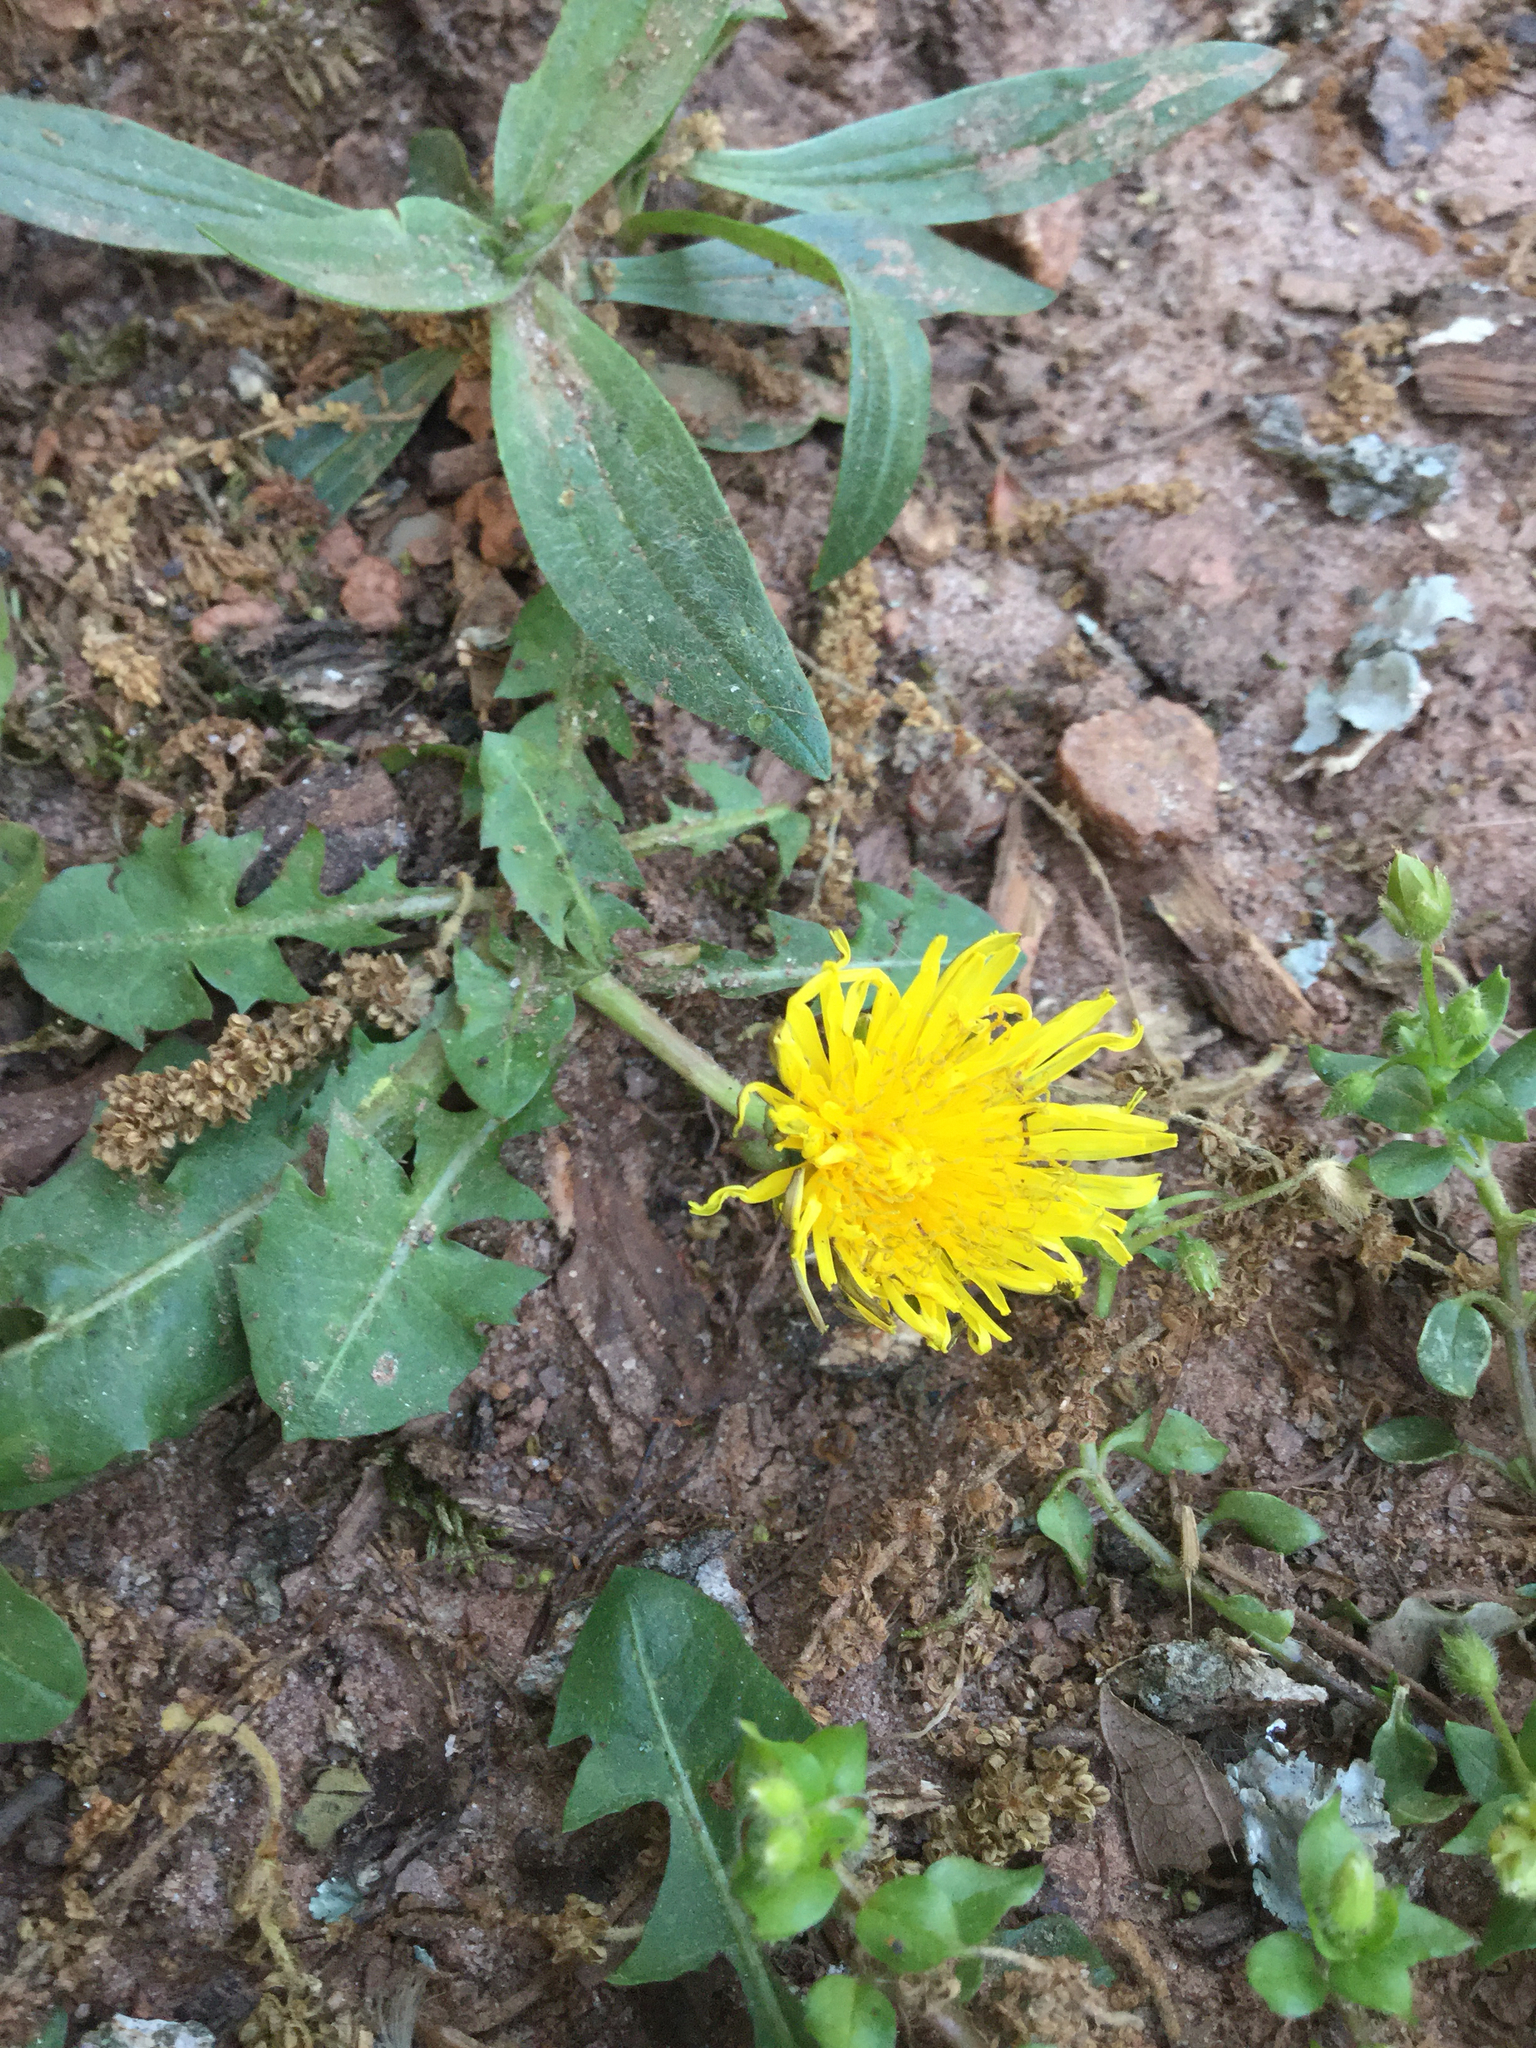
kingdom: Plantae
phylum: Tracheophyta
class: Magnoliopsida
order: Asterales
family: Asteraceae
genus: Taraxacum
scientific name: Taraxacum officinale
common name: Common dandelion
